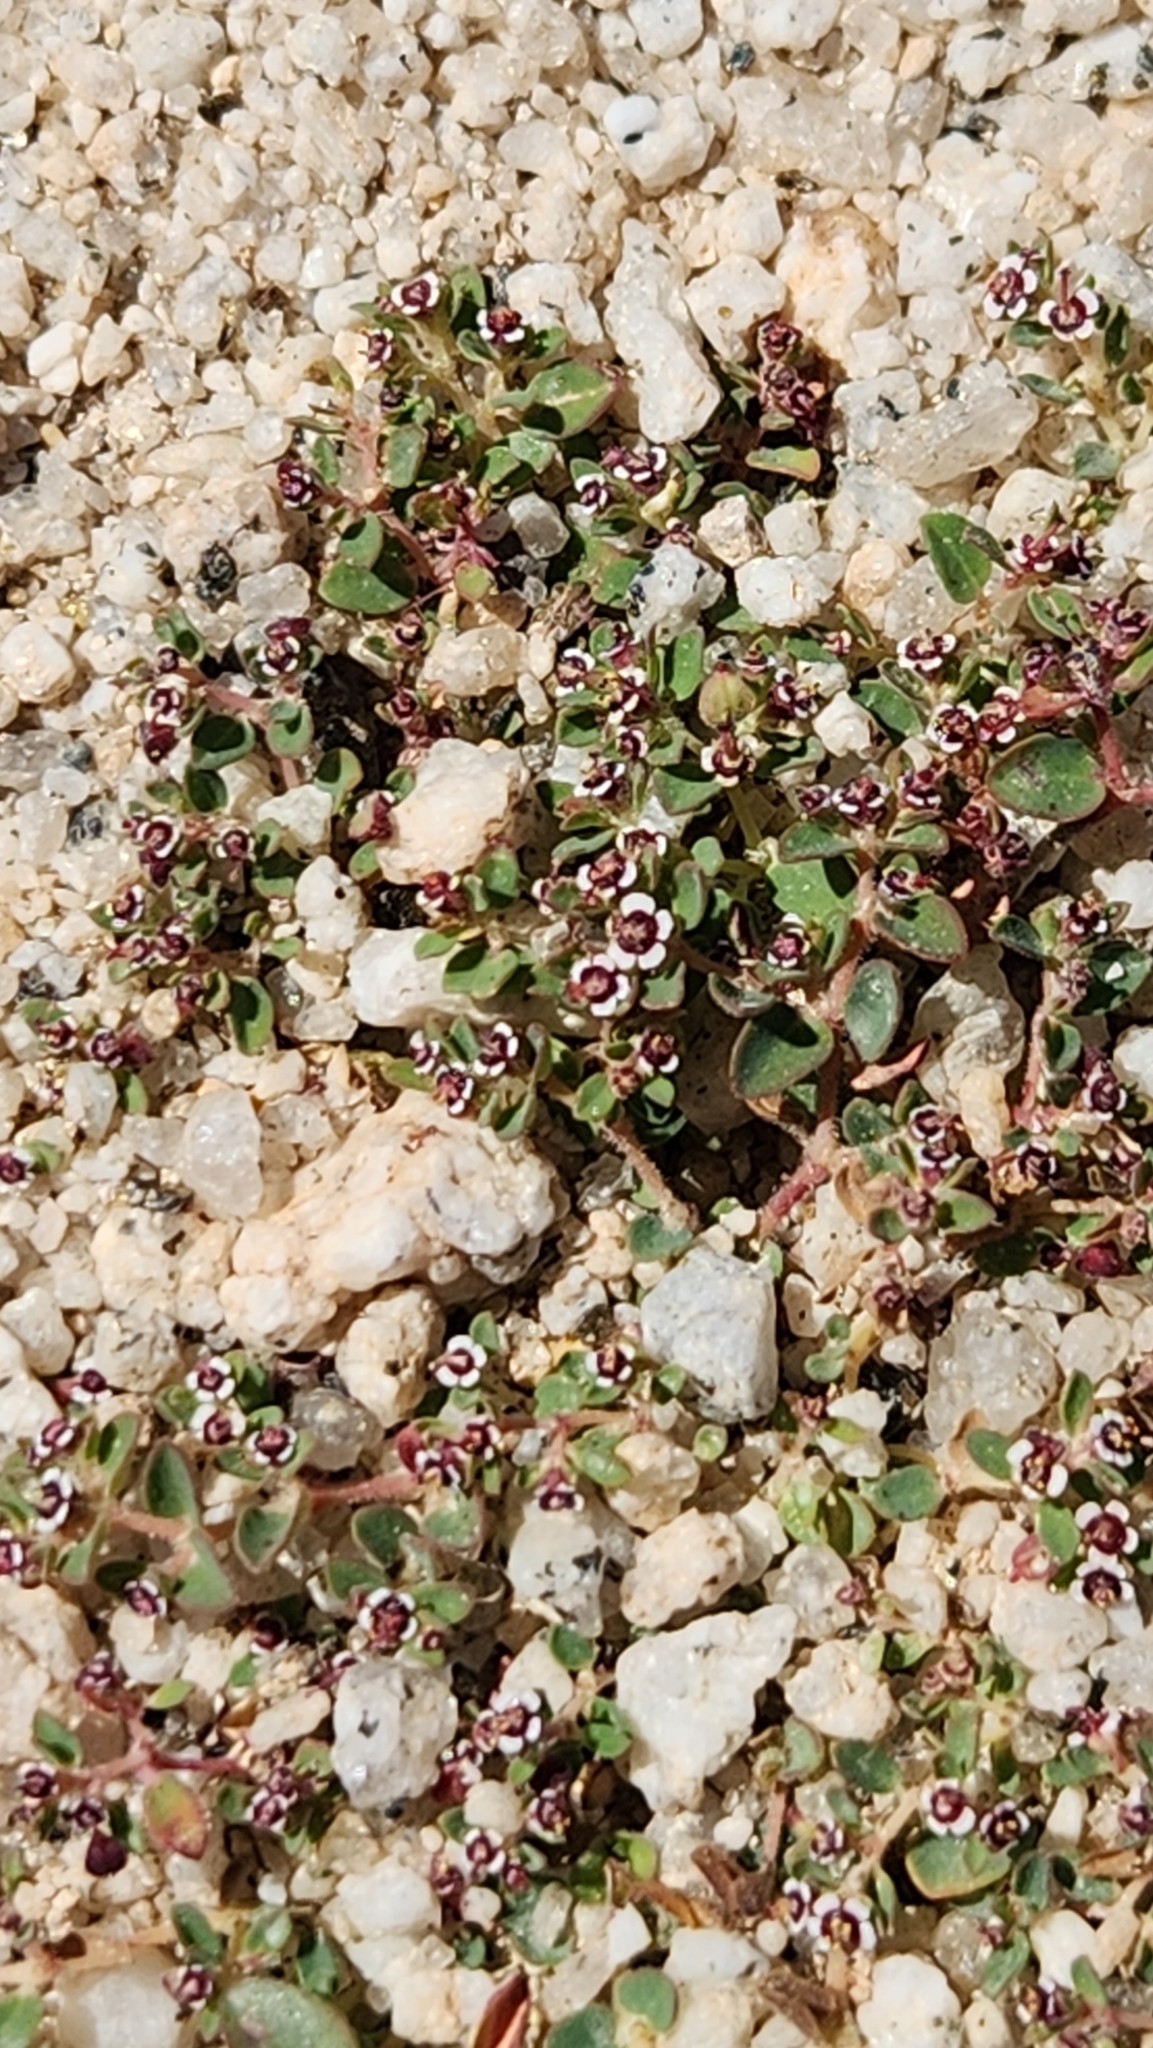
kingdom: Plantae
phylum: Tracheophyta
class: Magnoliopsida
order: Malpighiales
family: Euphorbiaceae
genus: Euphorbia
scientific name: Euphorbia polycarpa
